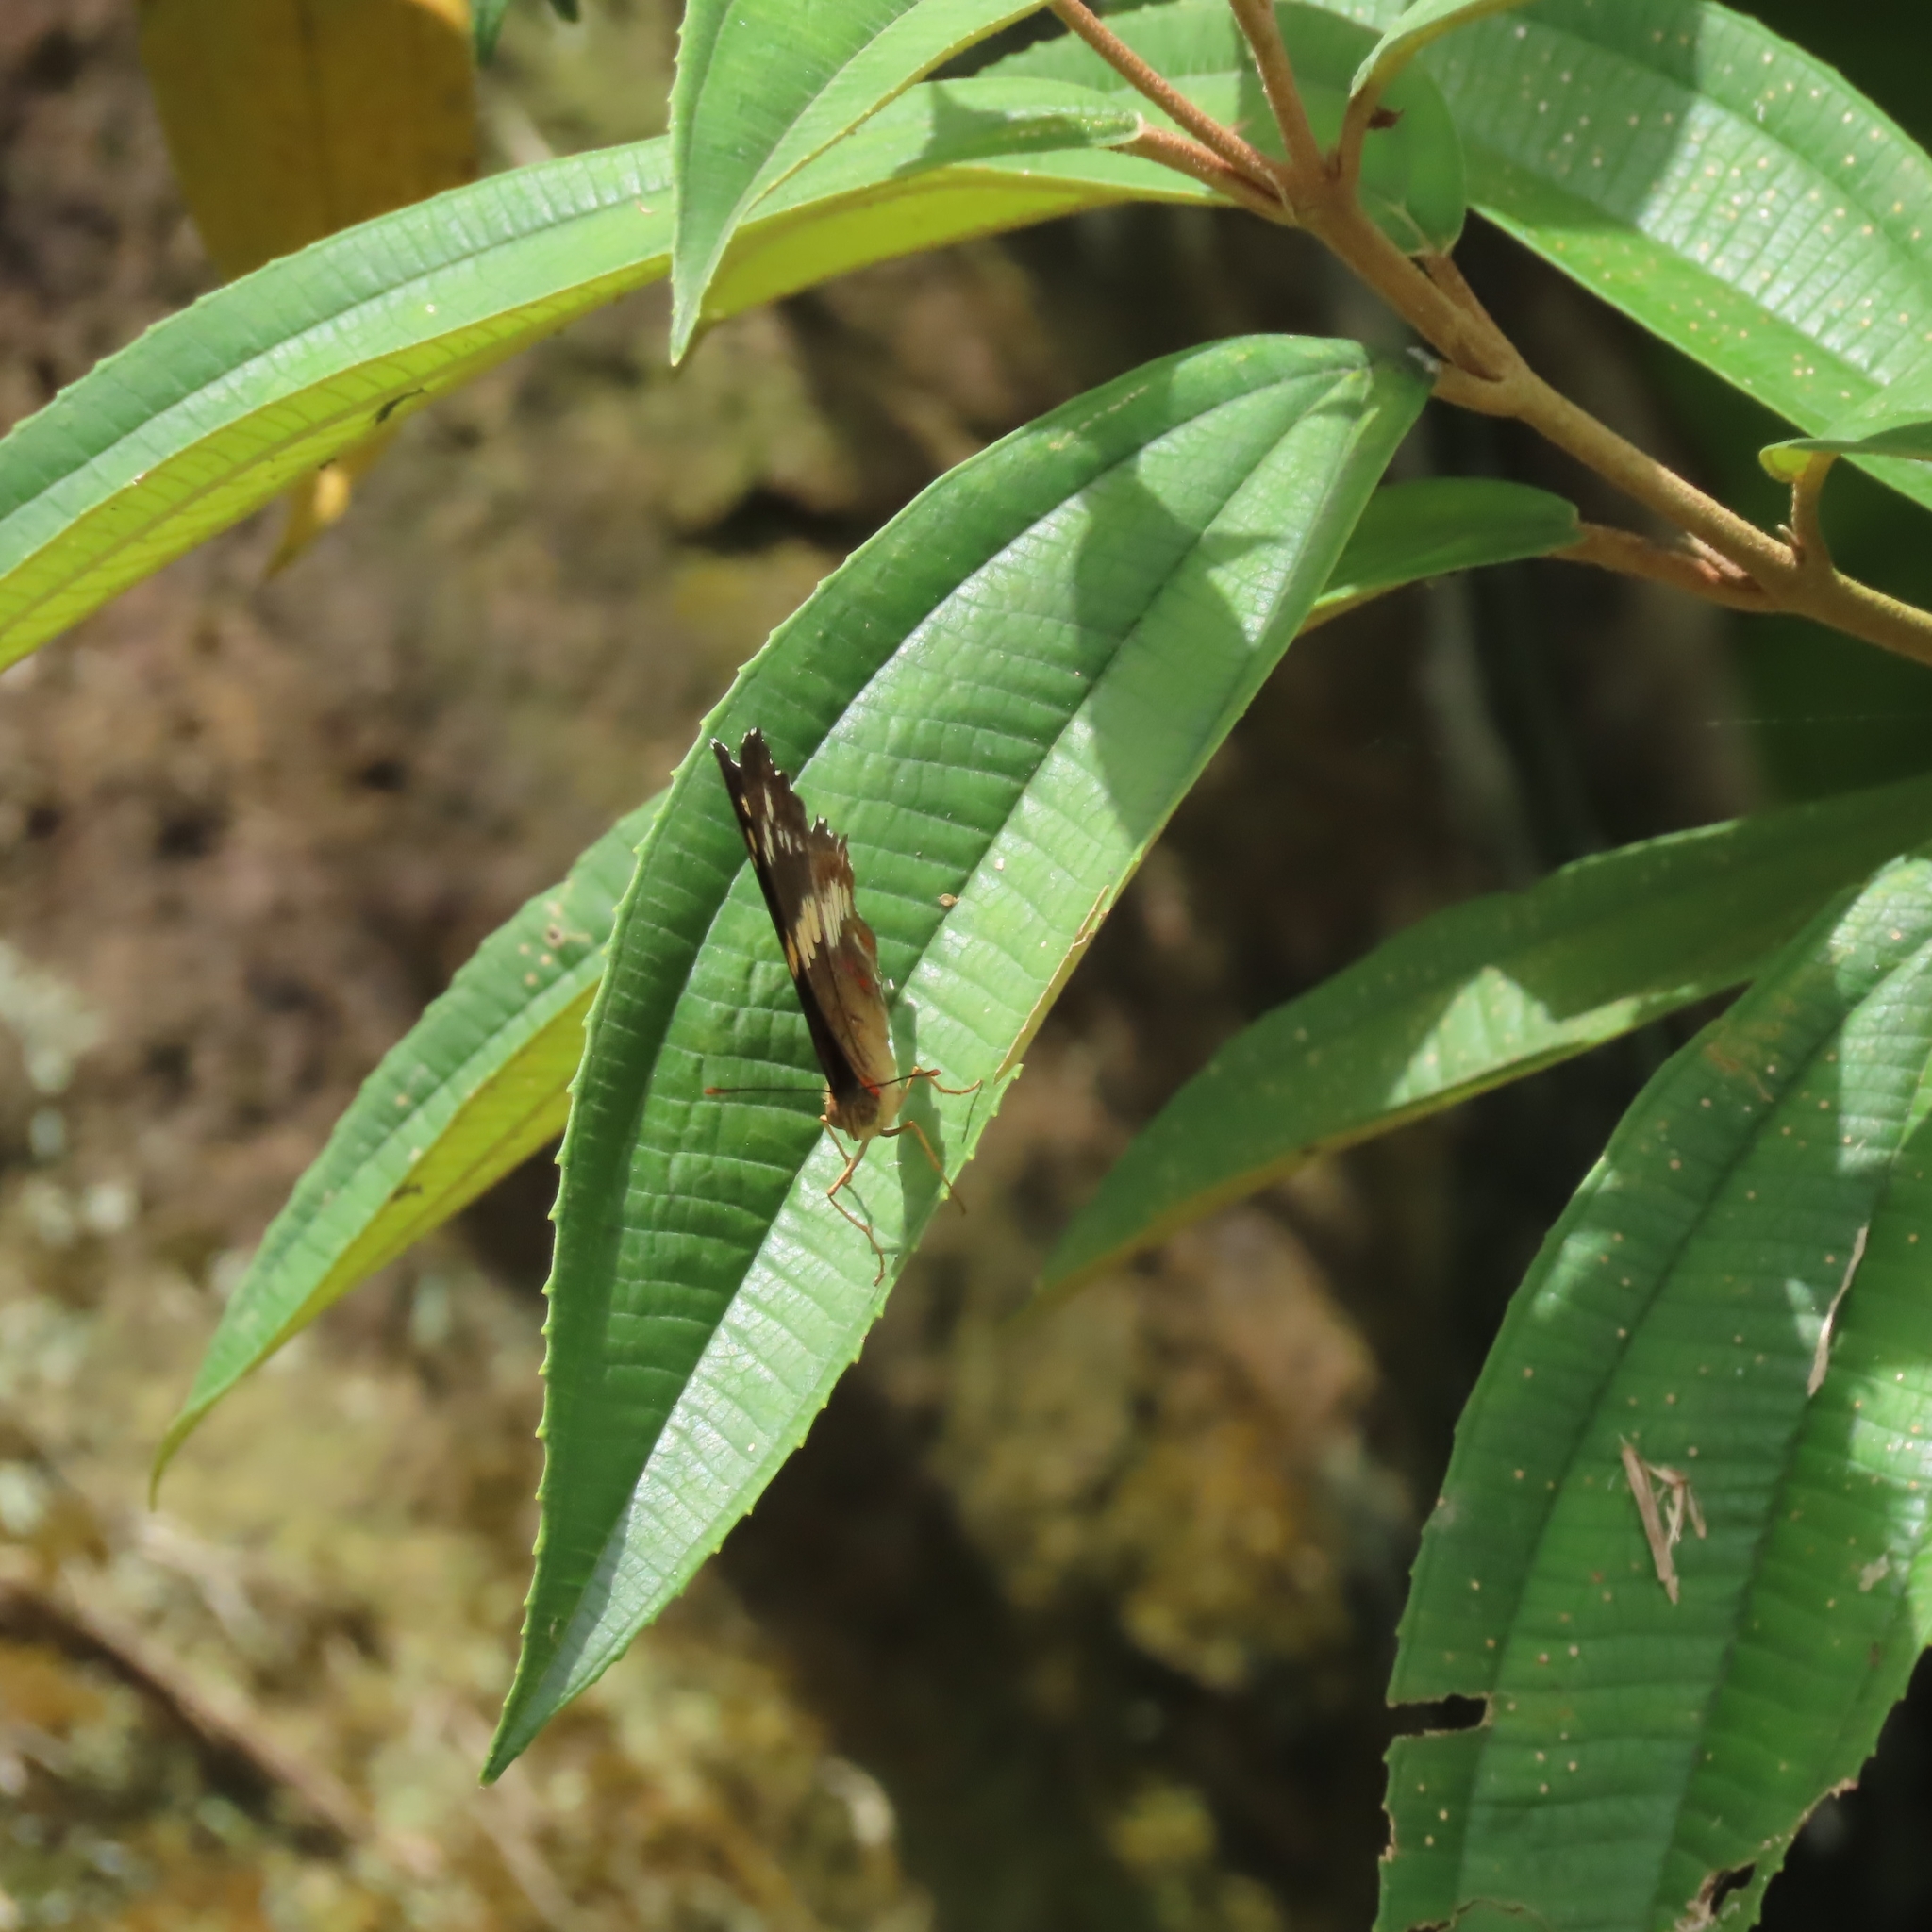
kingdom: Animalia
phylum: Arthropoda
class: Insecta
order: Lepidoptera
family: Nymphalidae
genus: Anartia
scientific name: Anartia fatima
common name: Banded peacock
